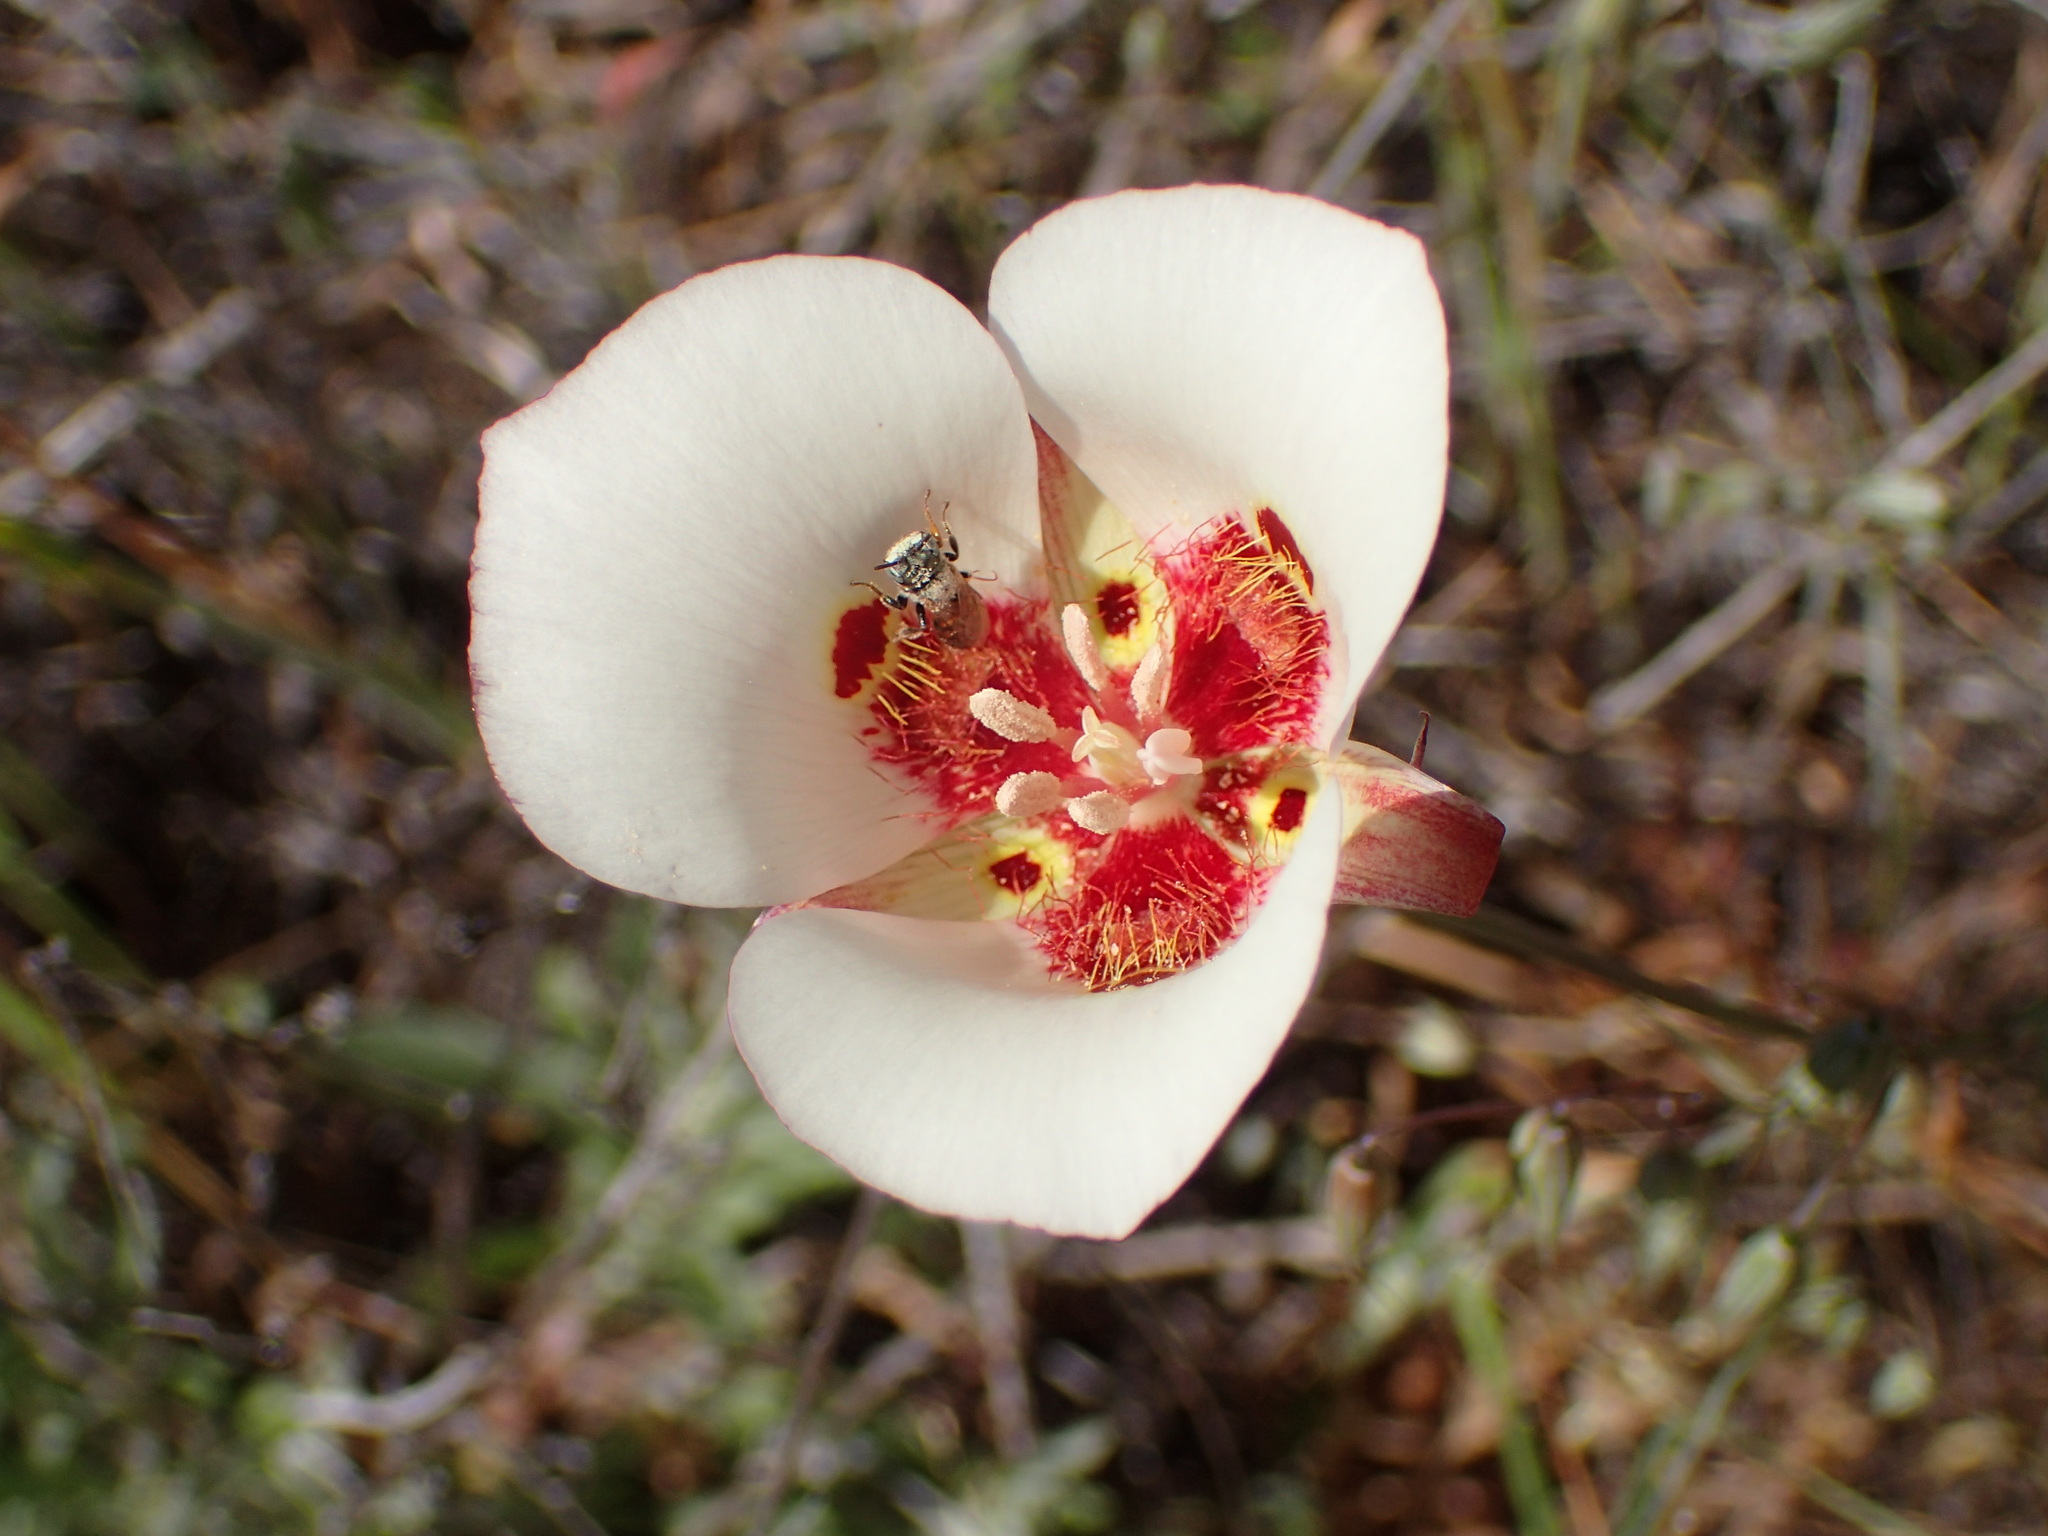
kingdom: Plantae
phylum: Tracheophyta
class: Liliopsida
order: Liliales
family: Liliaceae
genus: Calochortus
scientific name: Calochortus venustus
